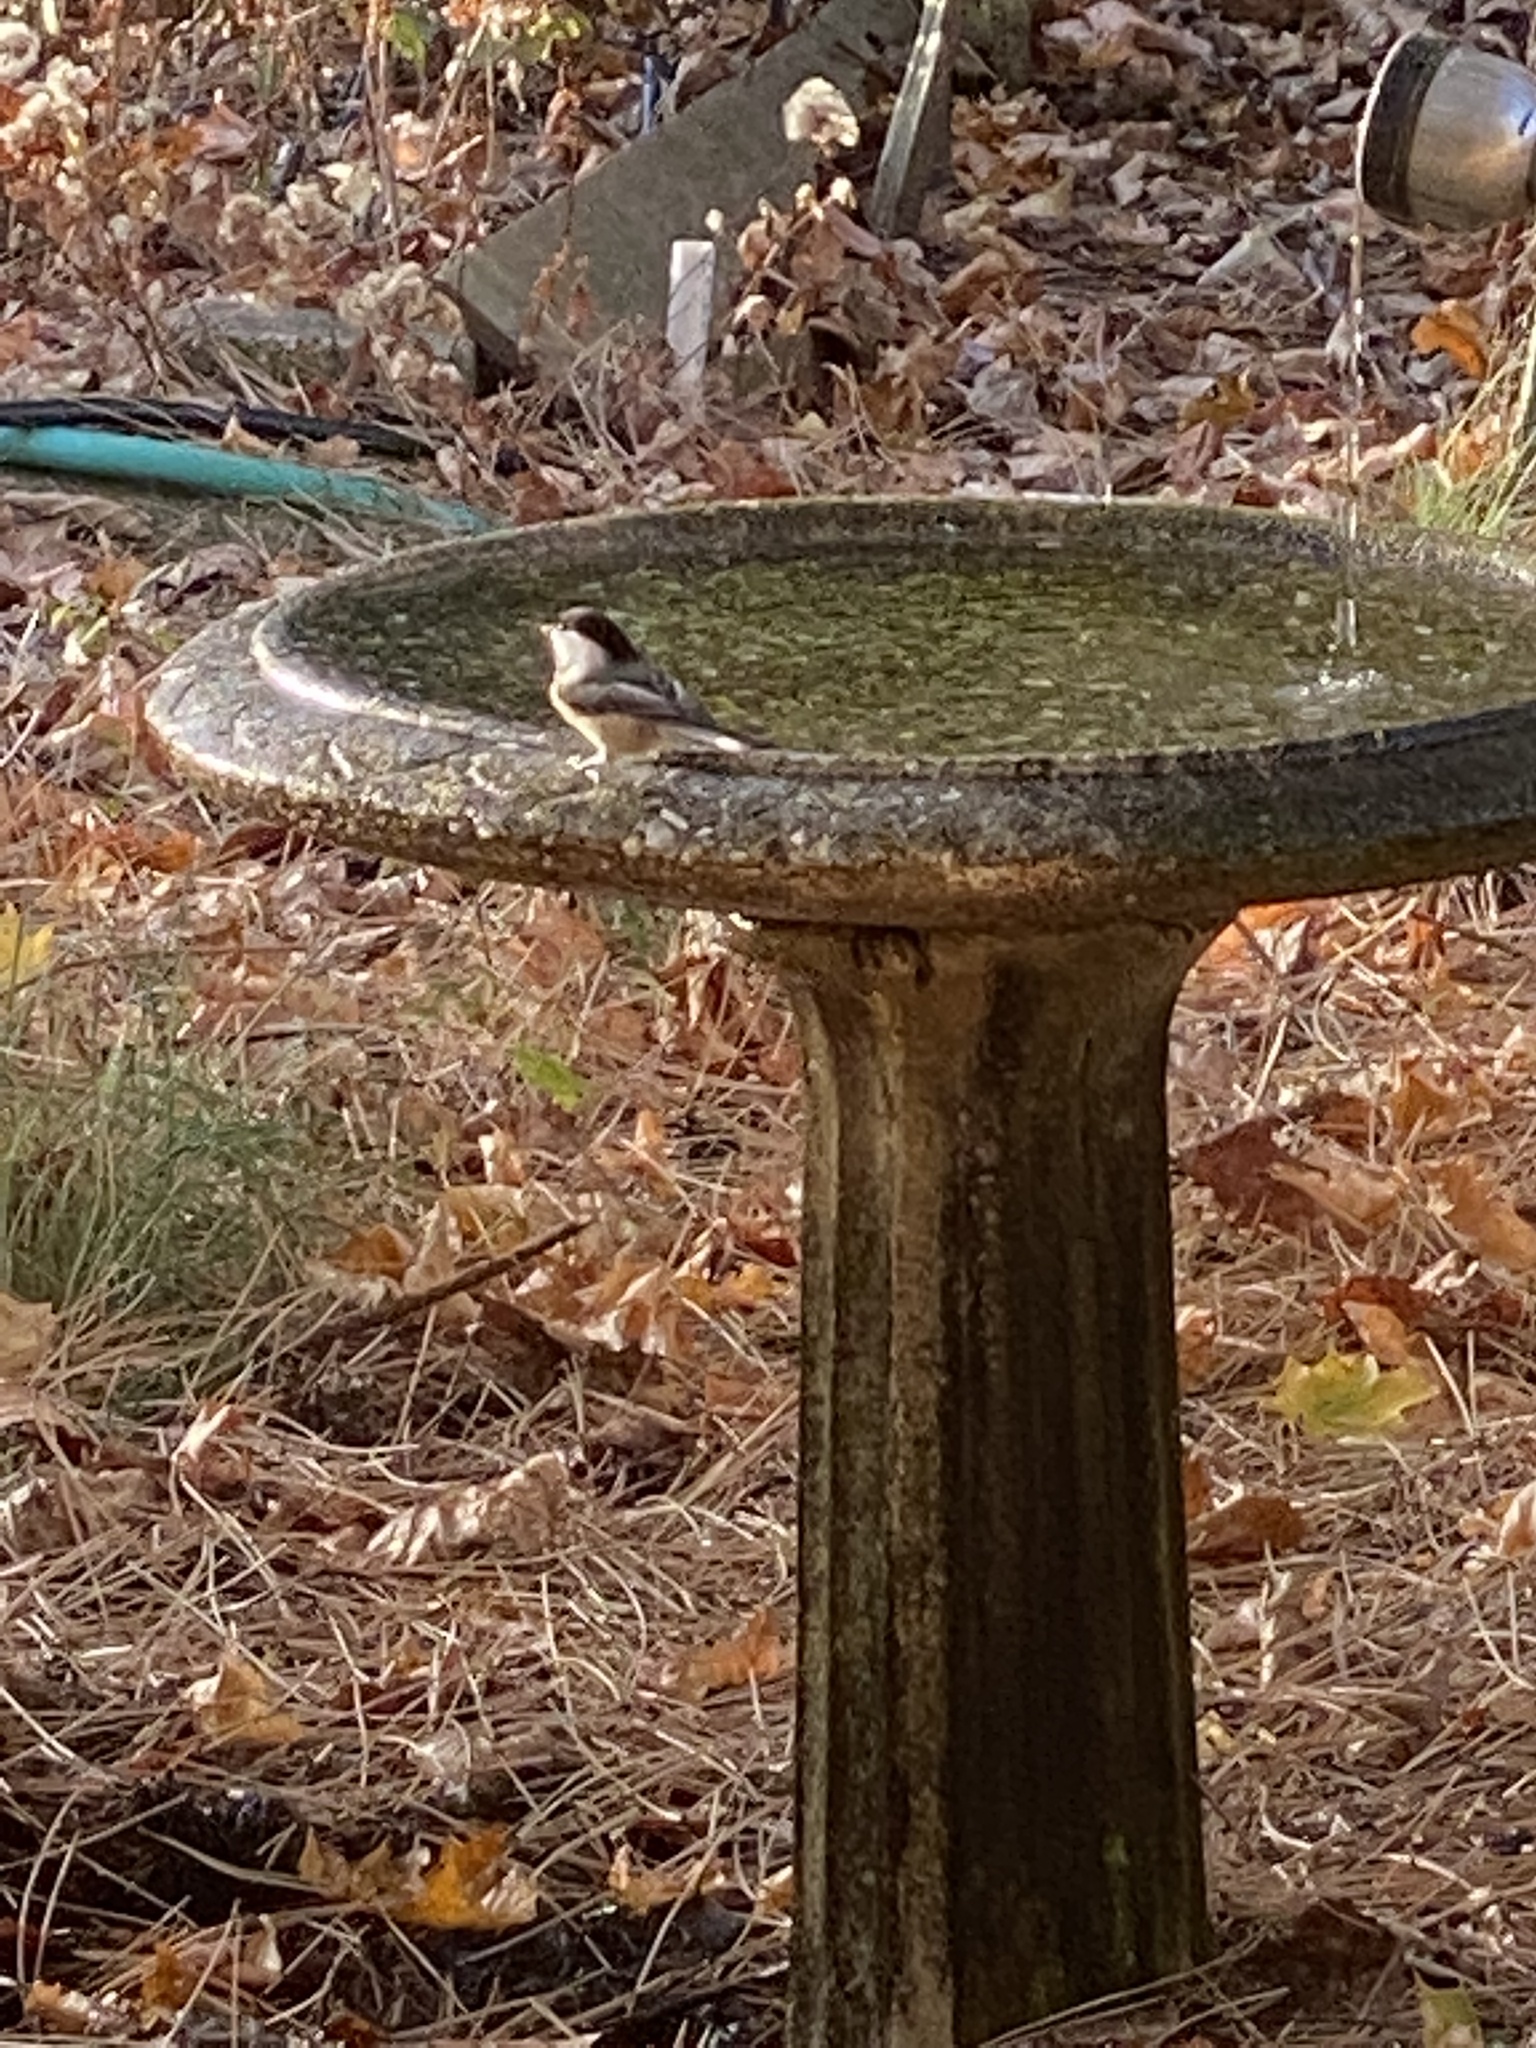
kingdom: Animalia
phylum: Chordata
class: Aves
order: Passeriformes
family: Paridae
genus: Poecile
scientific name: Poecile atricapillus
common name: Black-capped chickadee
